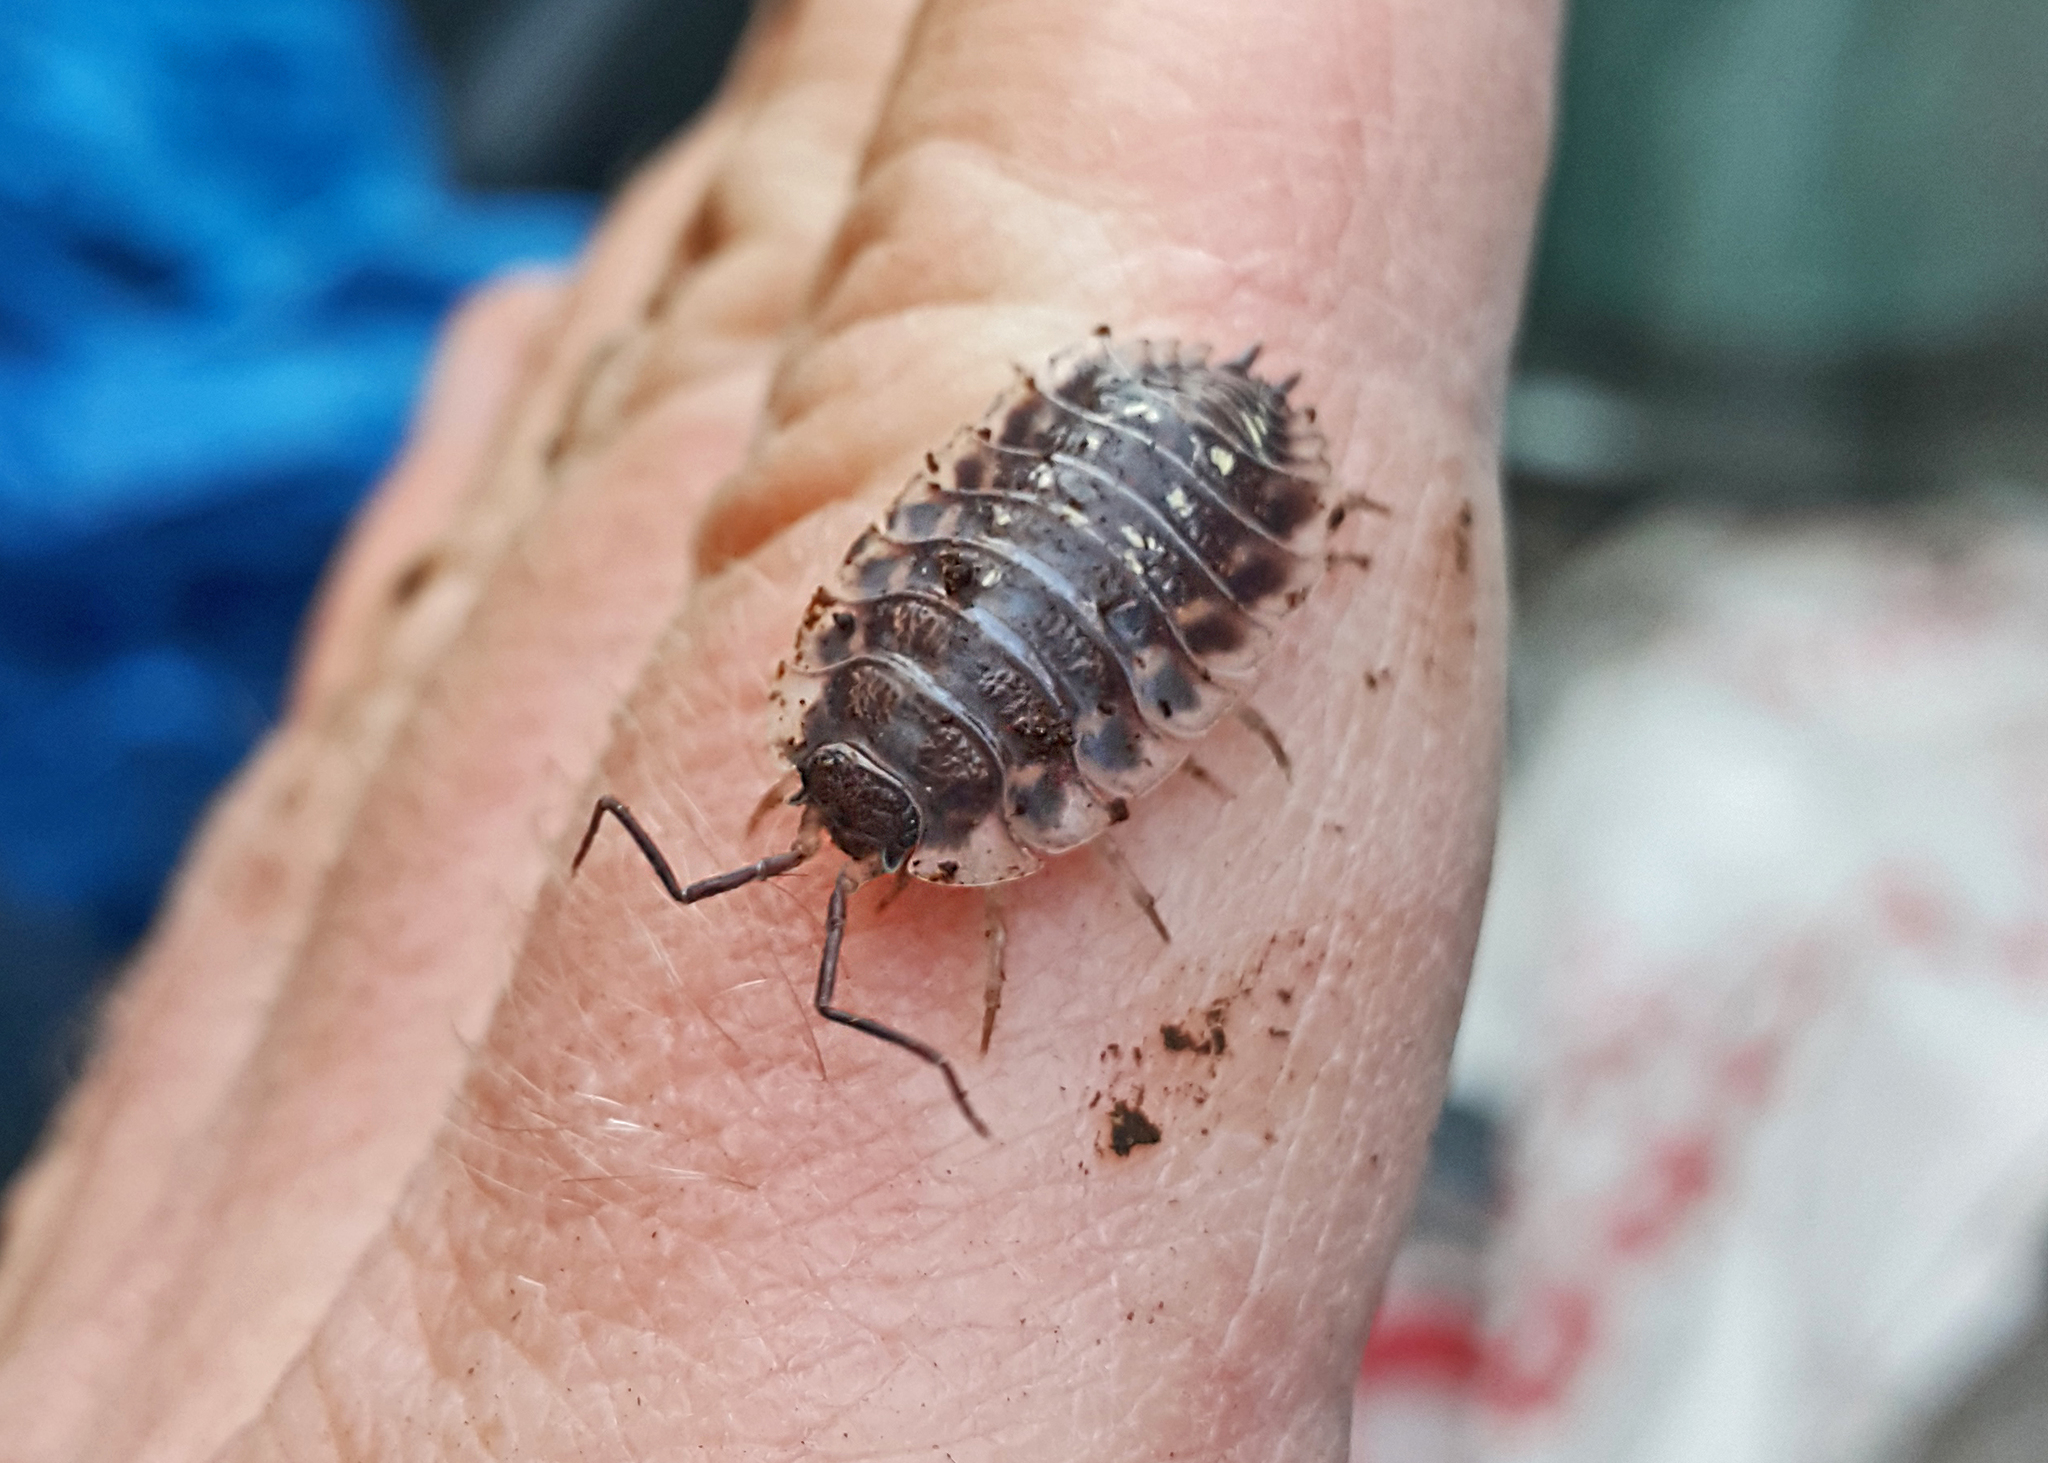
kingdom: Animalia
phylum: Arthropoda
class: Malacostraca
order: Isopoda
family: Oniscidae
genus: Oniscus
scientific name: Oniscus asellus
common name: Common shiny woodlouse
